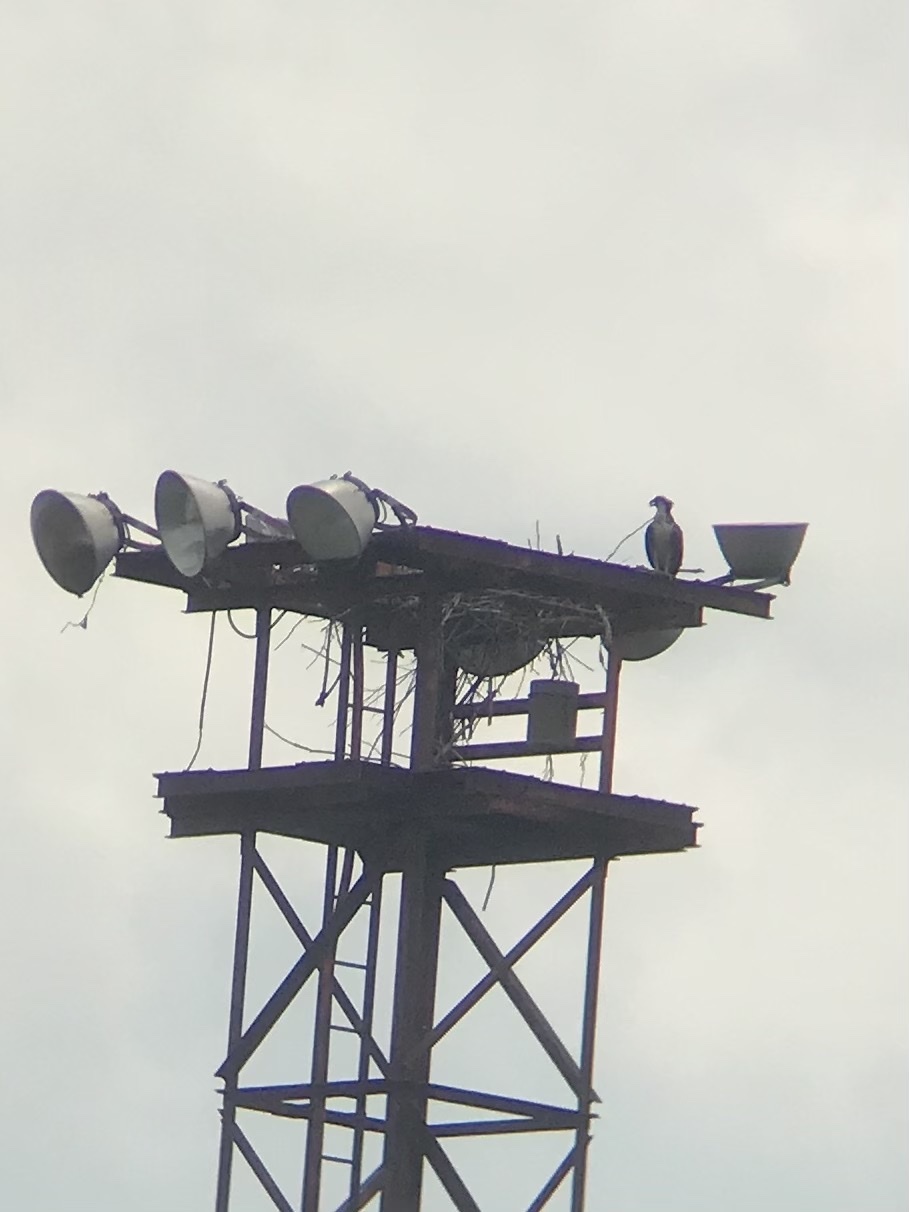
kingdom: Animalia
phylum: Chordata
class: Aves
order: Accipitriformes
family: Pandionidae
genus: Pandion
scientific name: Pandion haliaetus
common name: Osprey
